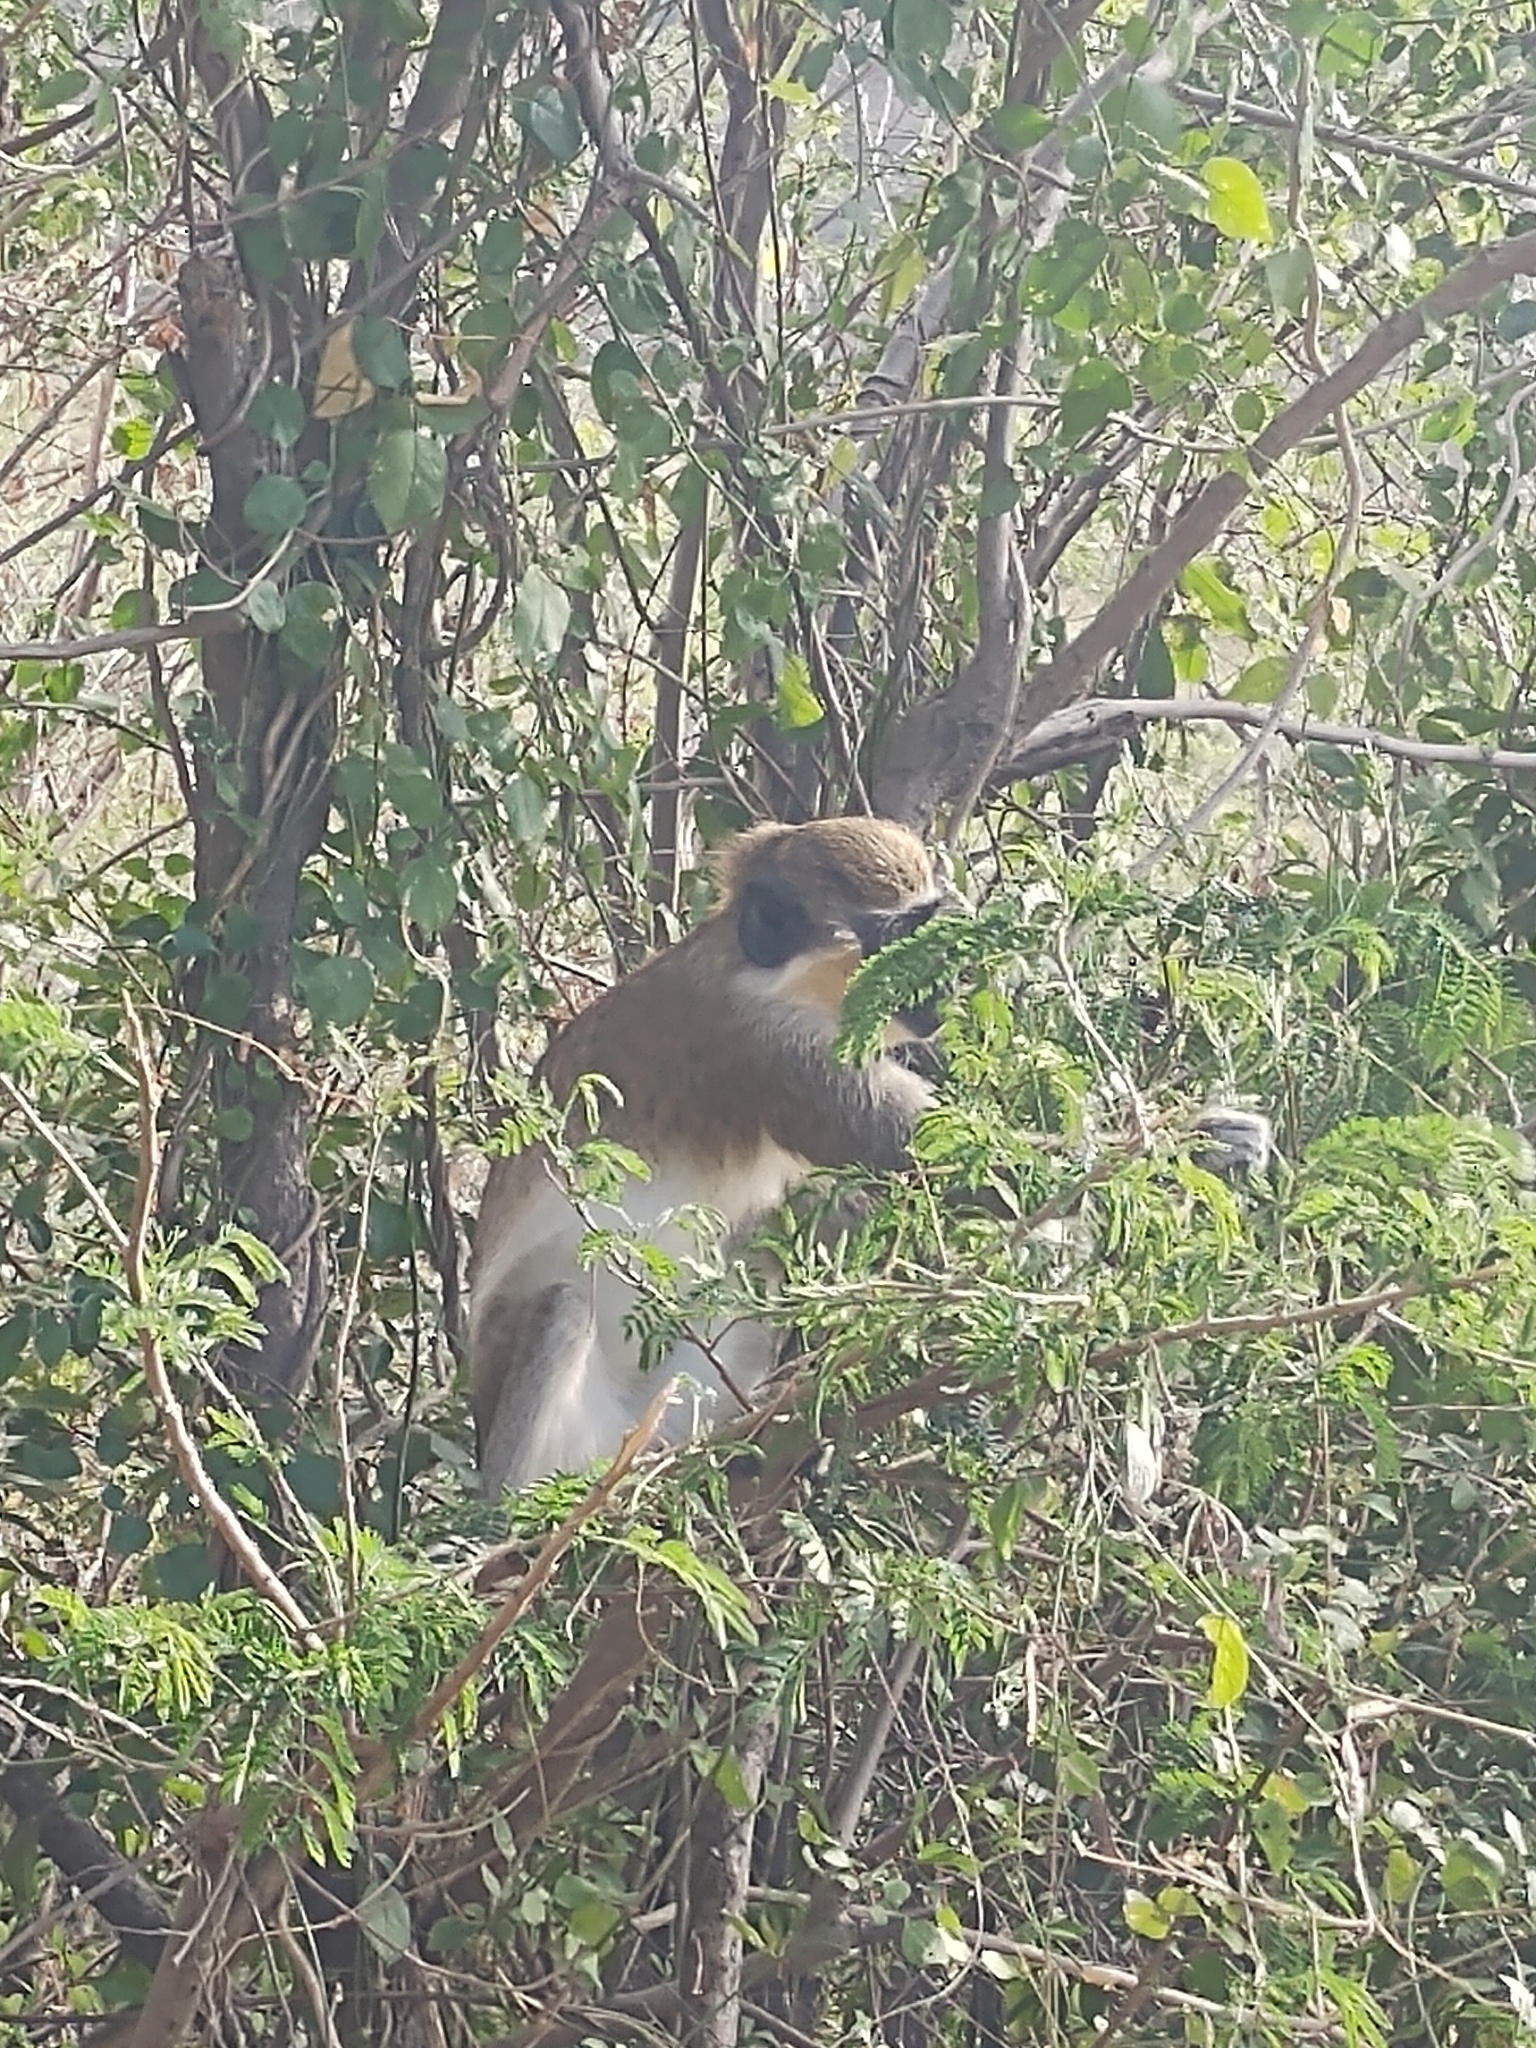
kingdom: Animalia
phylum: Chordata
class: Mammalia
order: Primates
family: Cercopithecidae
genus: Chlorocebus
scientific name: Chlorocebus sabaeus
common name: Green monkey
